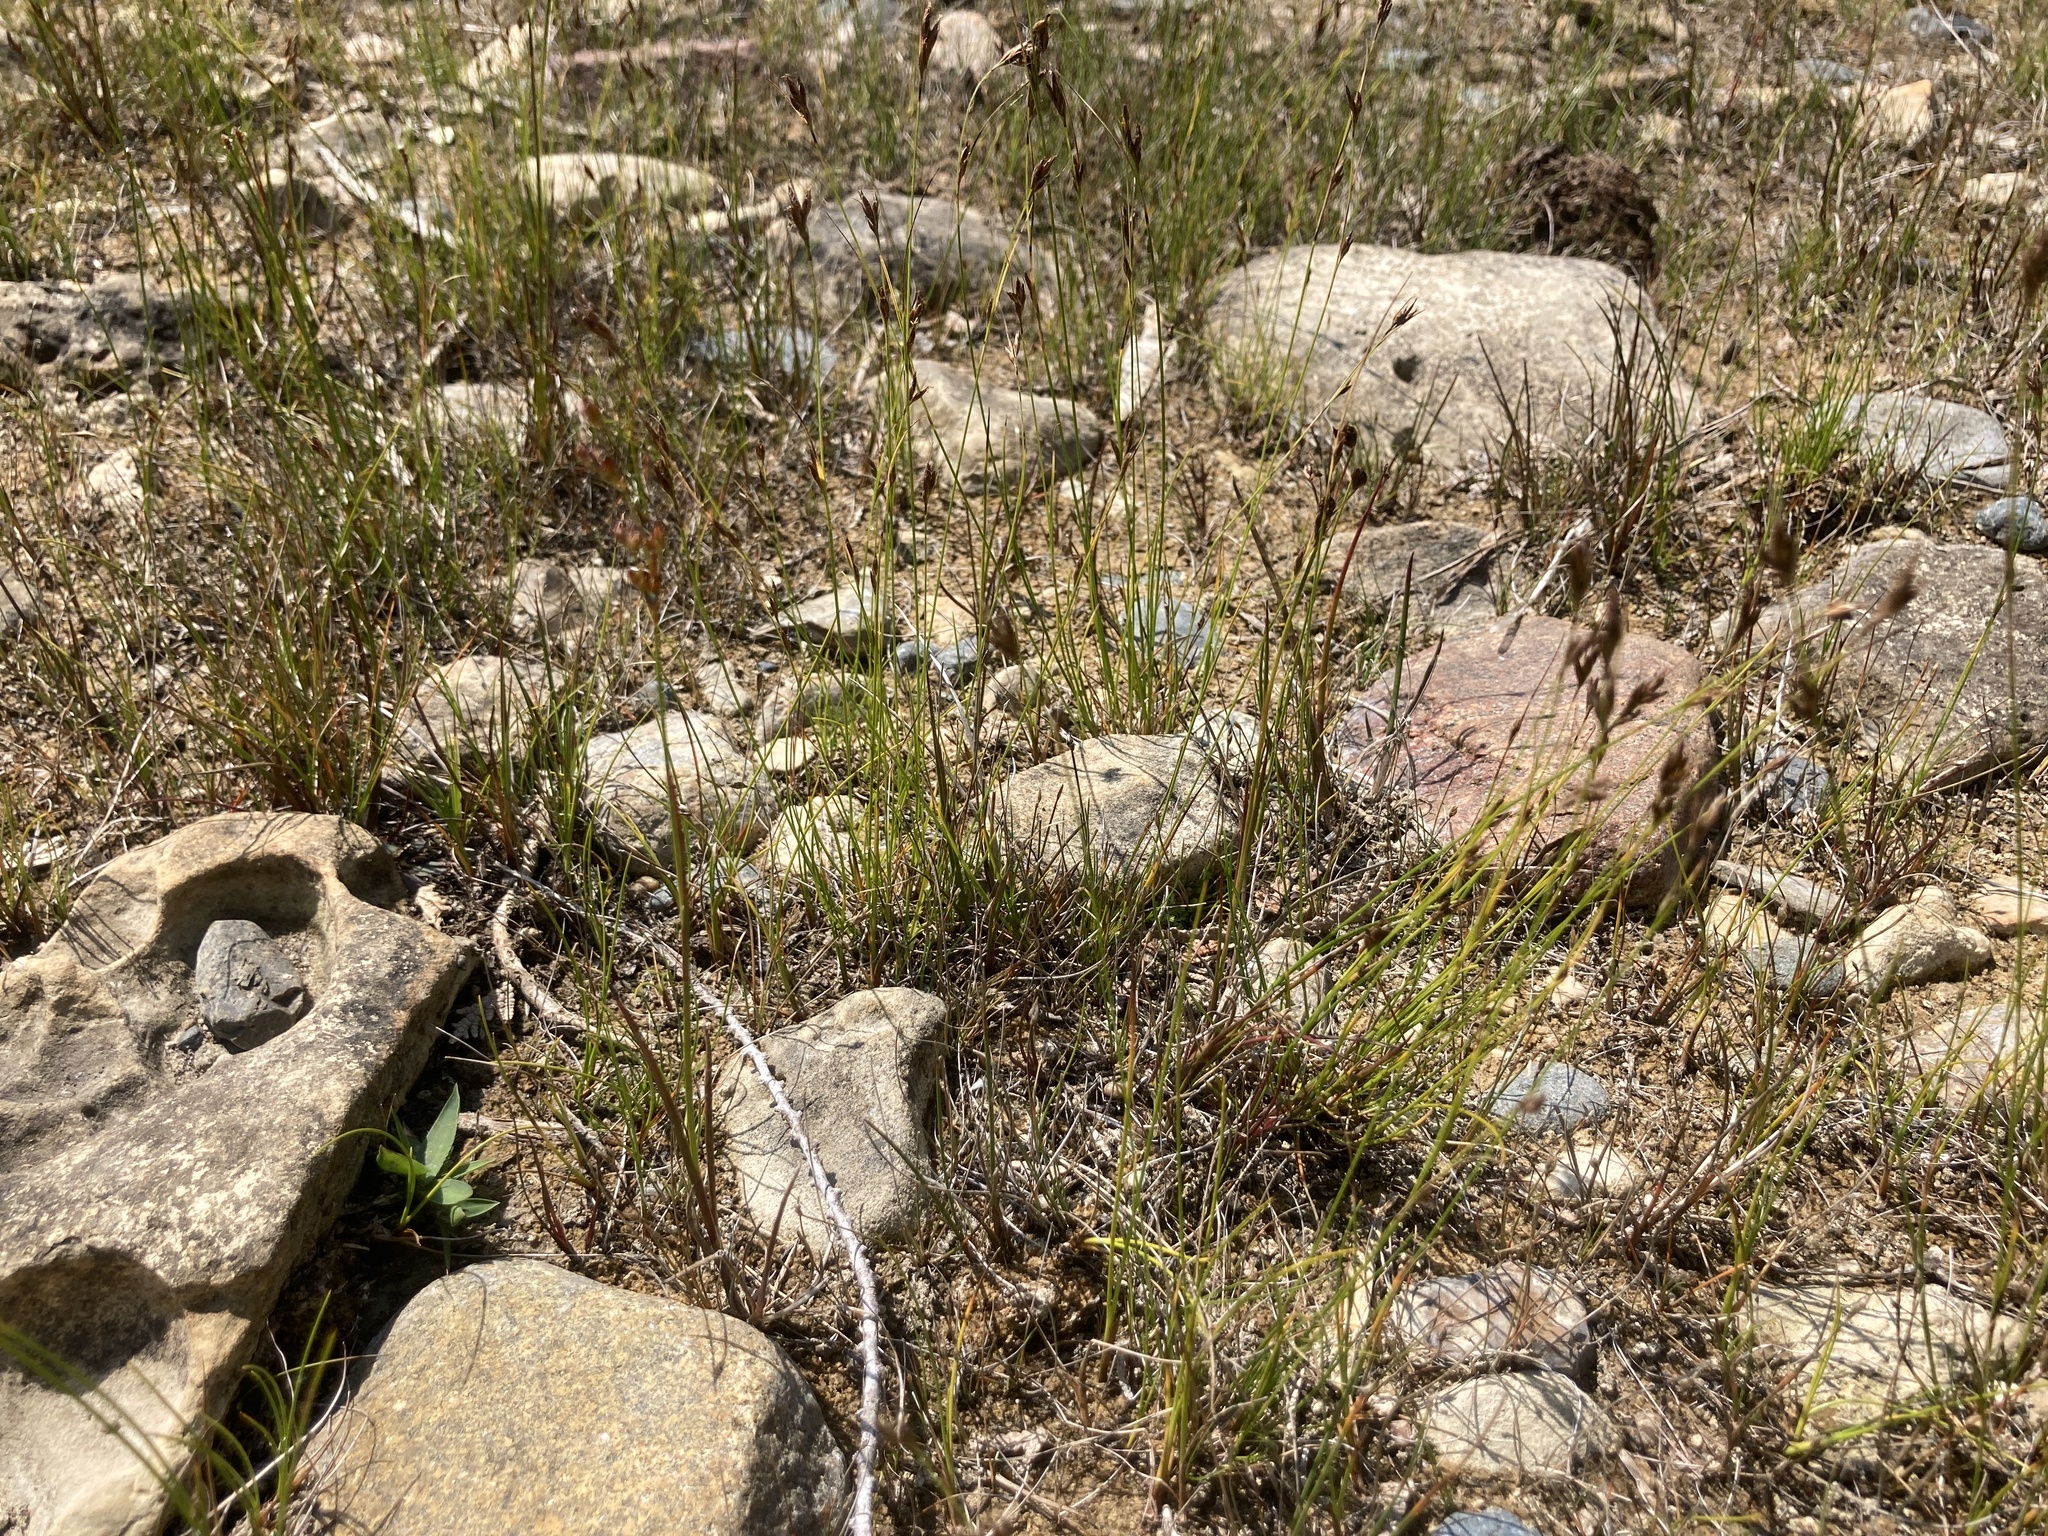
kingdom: Plantae
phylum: Tracheophyta
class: Liliopsida
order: Poales
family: Cyperaceae
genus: Rhynchospora
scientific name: Rhynchospora capillacea
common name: Capillary beakrush
